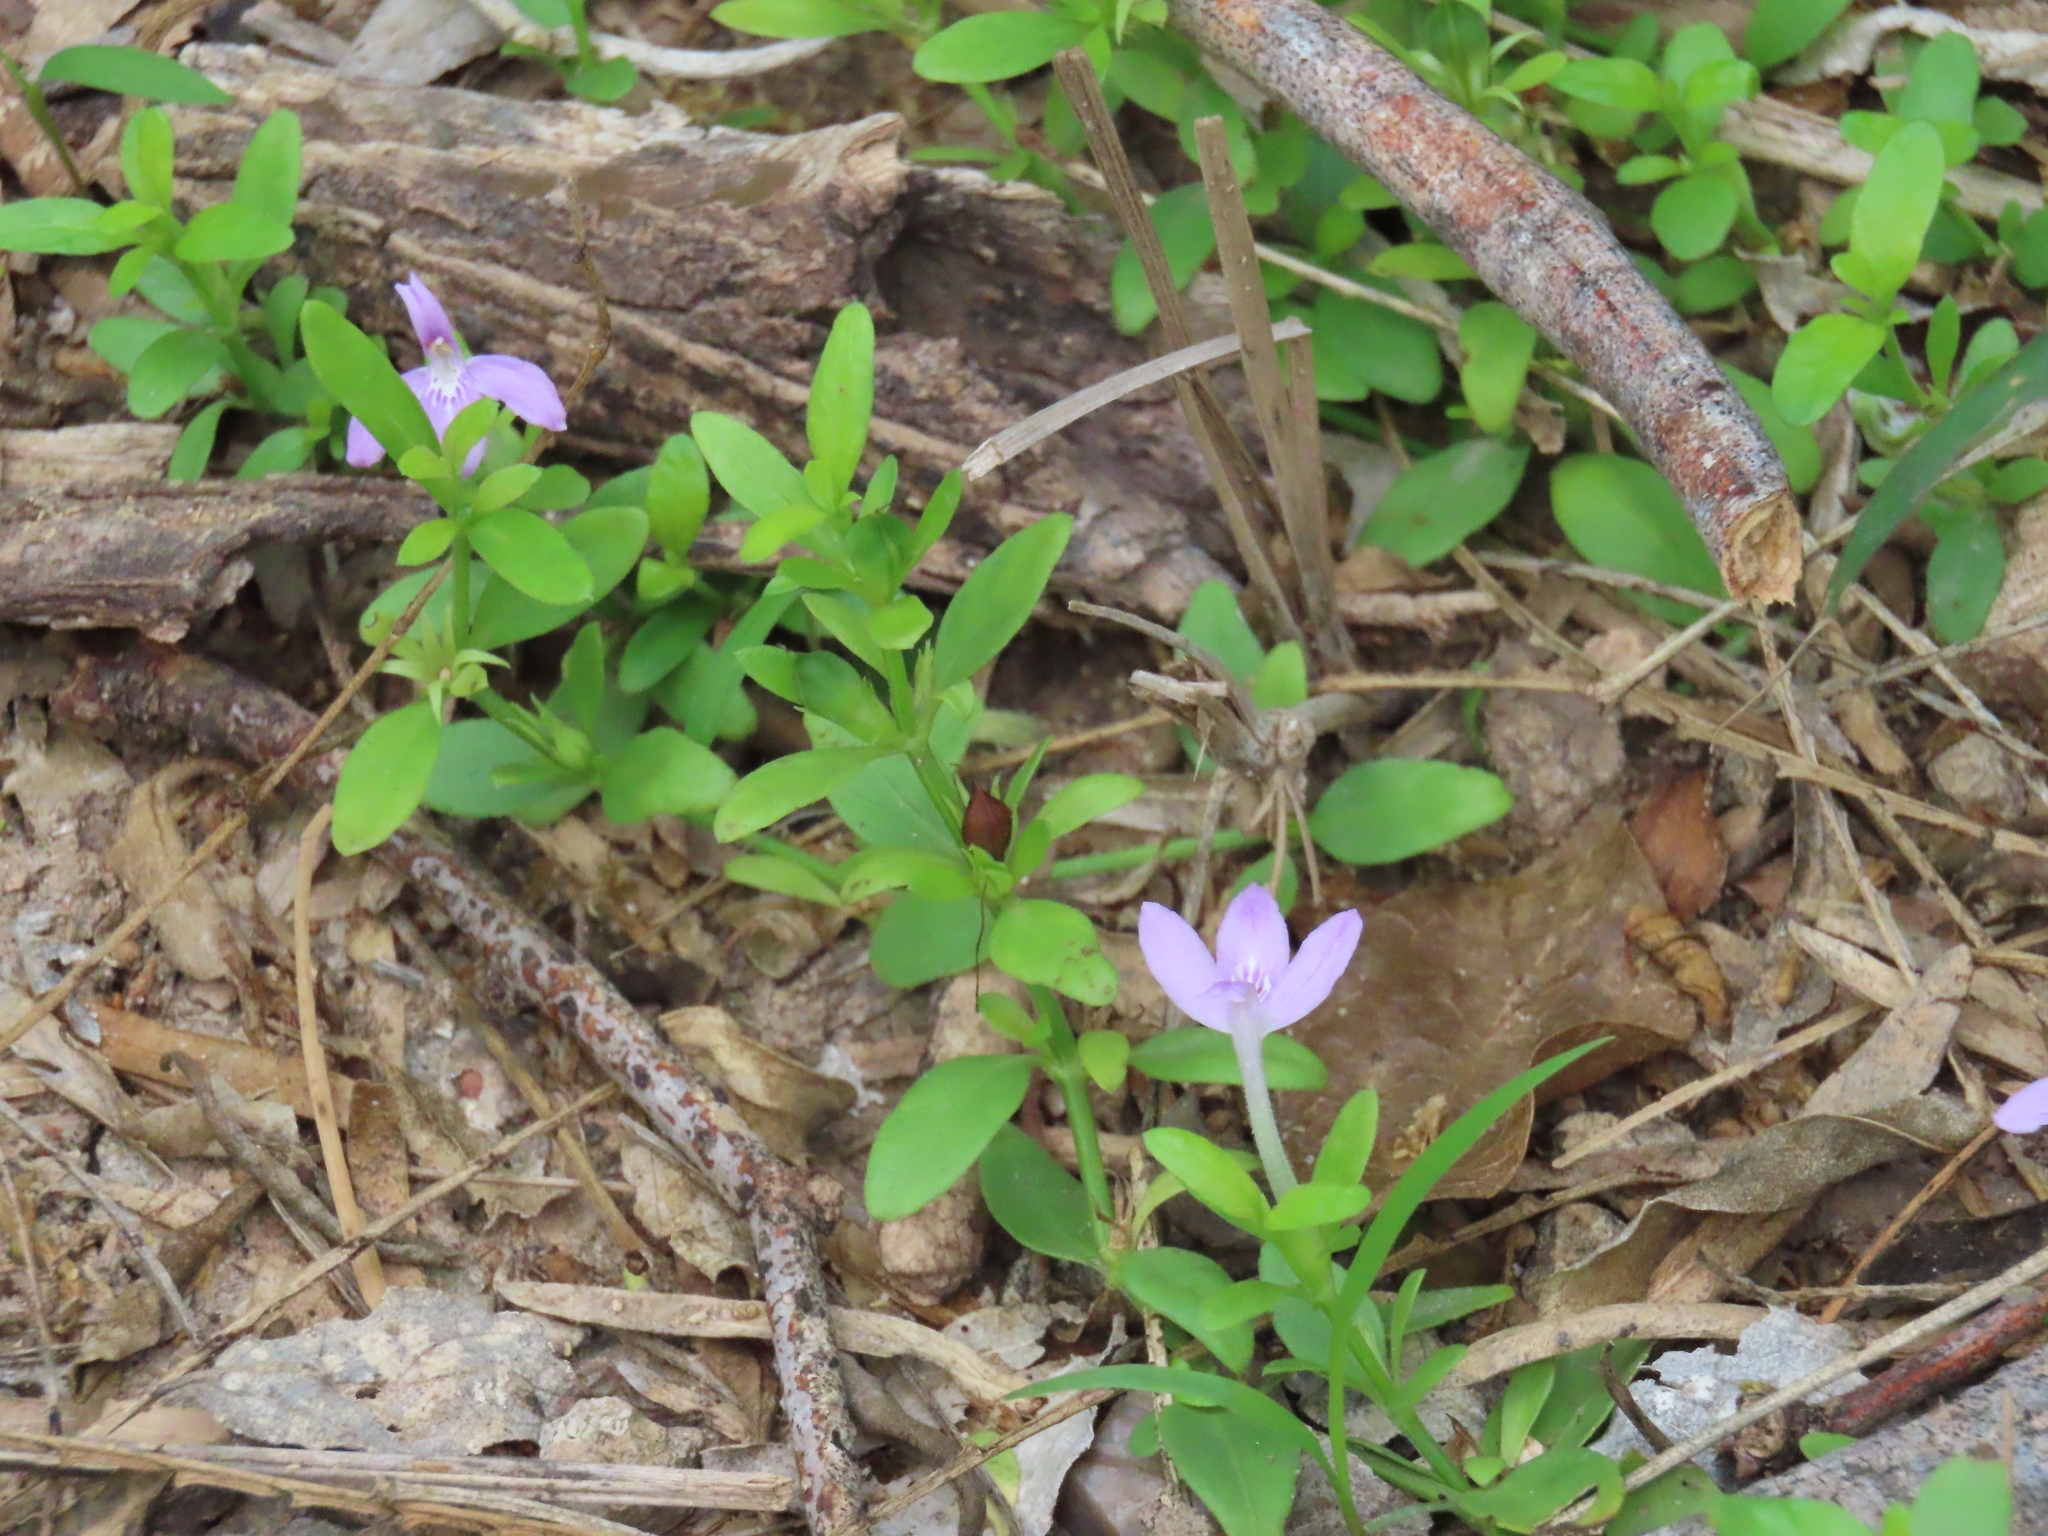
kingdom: Plantae
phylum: Tracheophyta
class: Magnoliopsida
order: Lamiales
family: Acanthaceae
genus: Justicia
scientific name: Justicia pilosella
